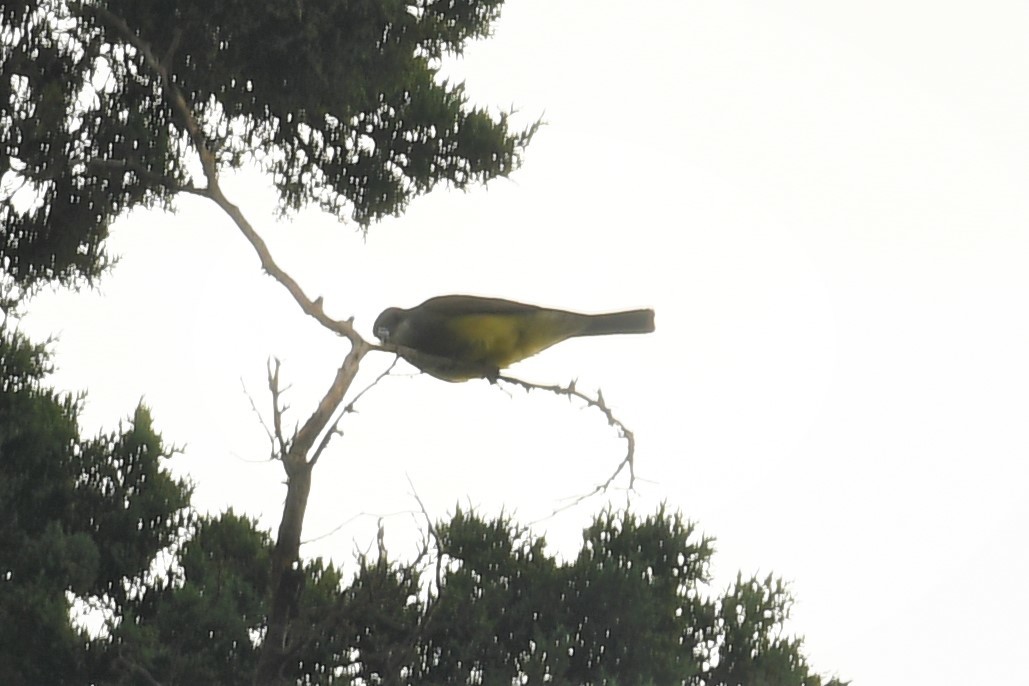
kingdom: Animalia
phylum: Chordata
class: Aves
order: Passeriformes
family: Tyrannidae
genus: Tyrannus
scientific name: Tyrannus vociferans
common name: Cassin's kingbird
